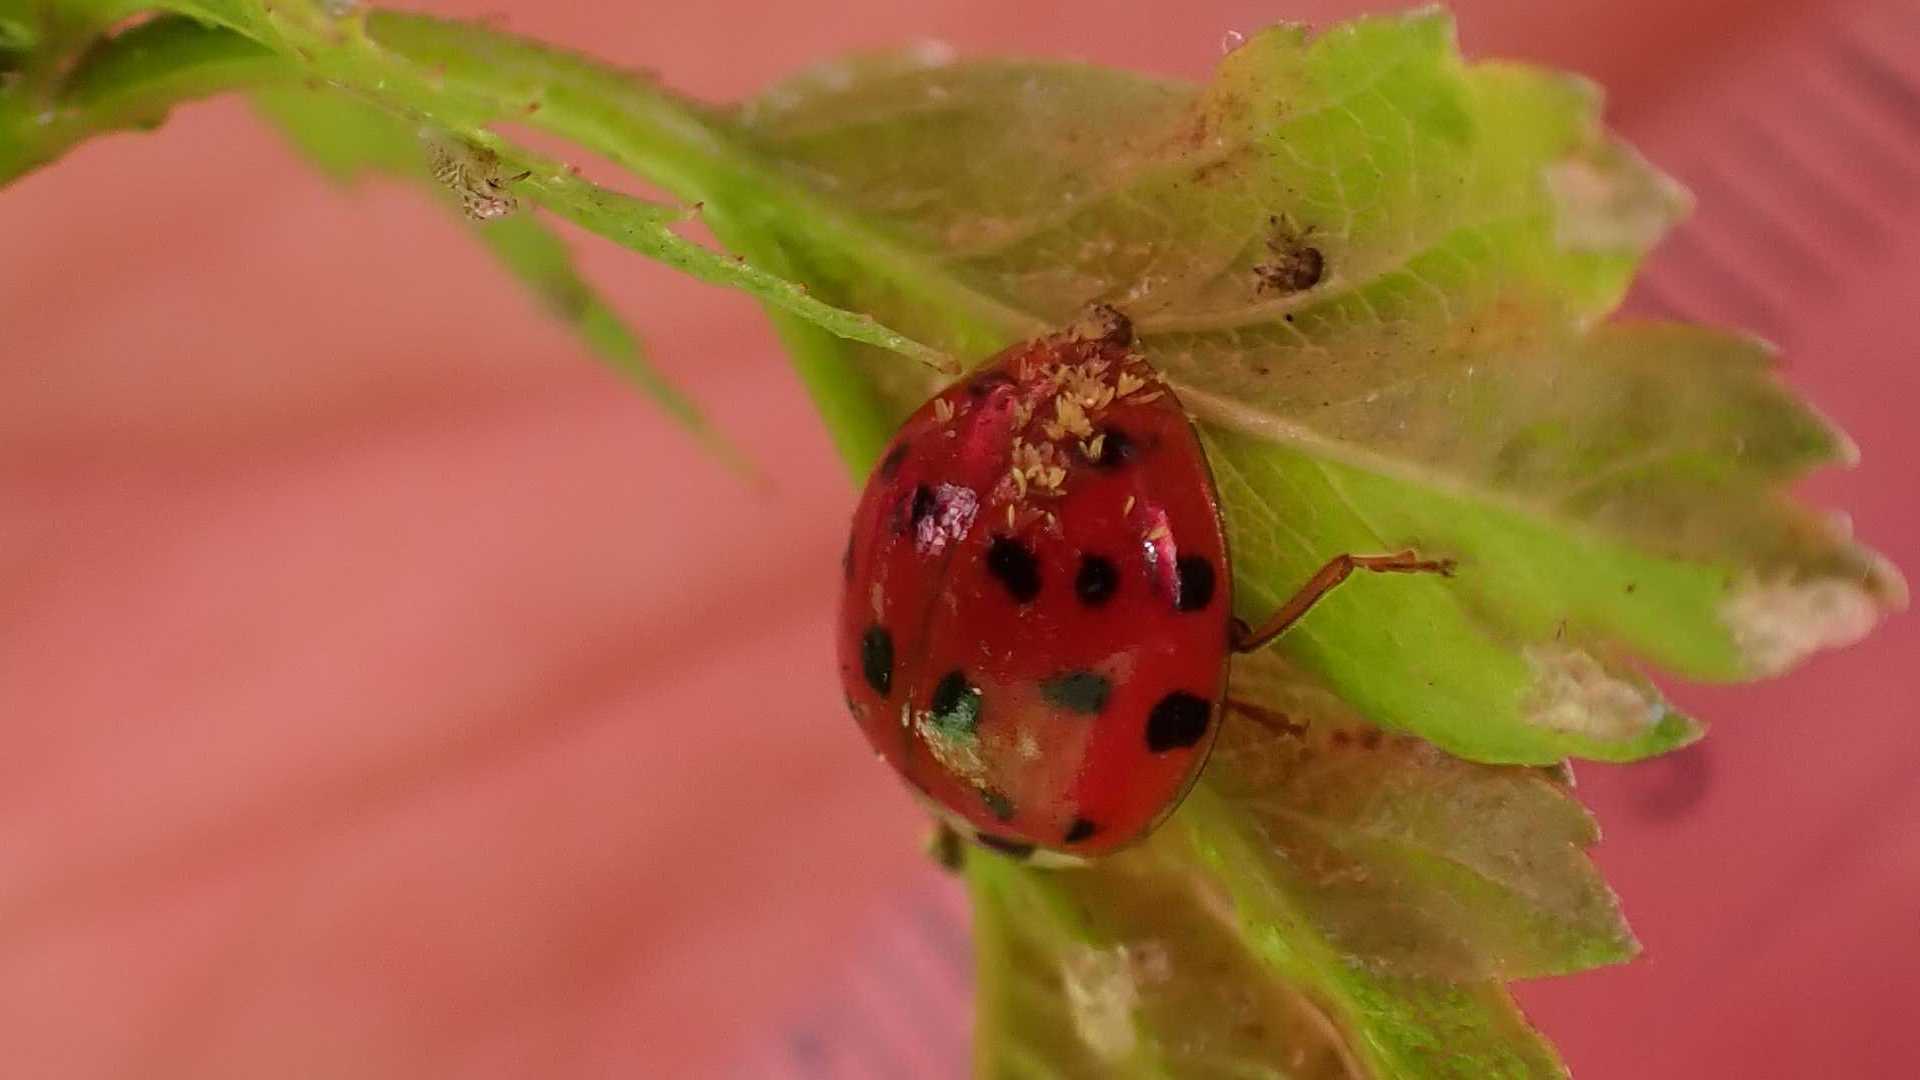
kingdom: Animalia
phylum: Arthropoda
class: Insecta
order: Coleoptera
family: Coccinellidae
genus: Harmonia
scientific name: Harmonia axyridis
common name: Harlequin ladybird
